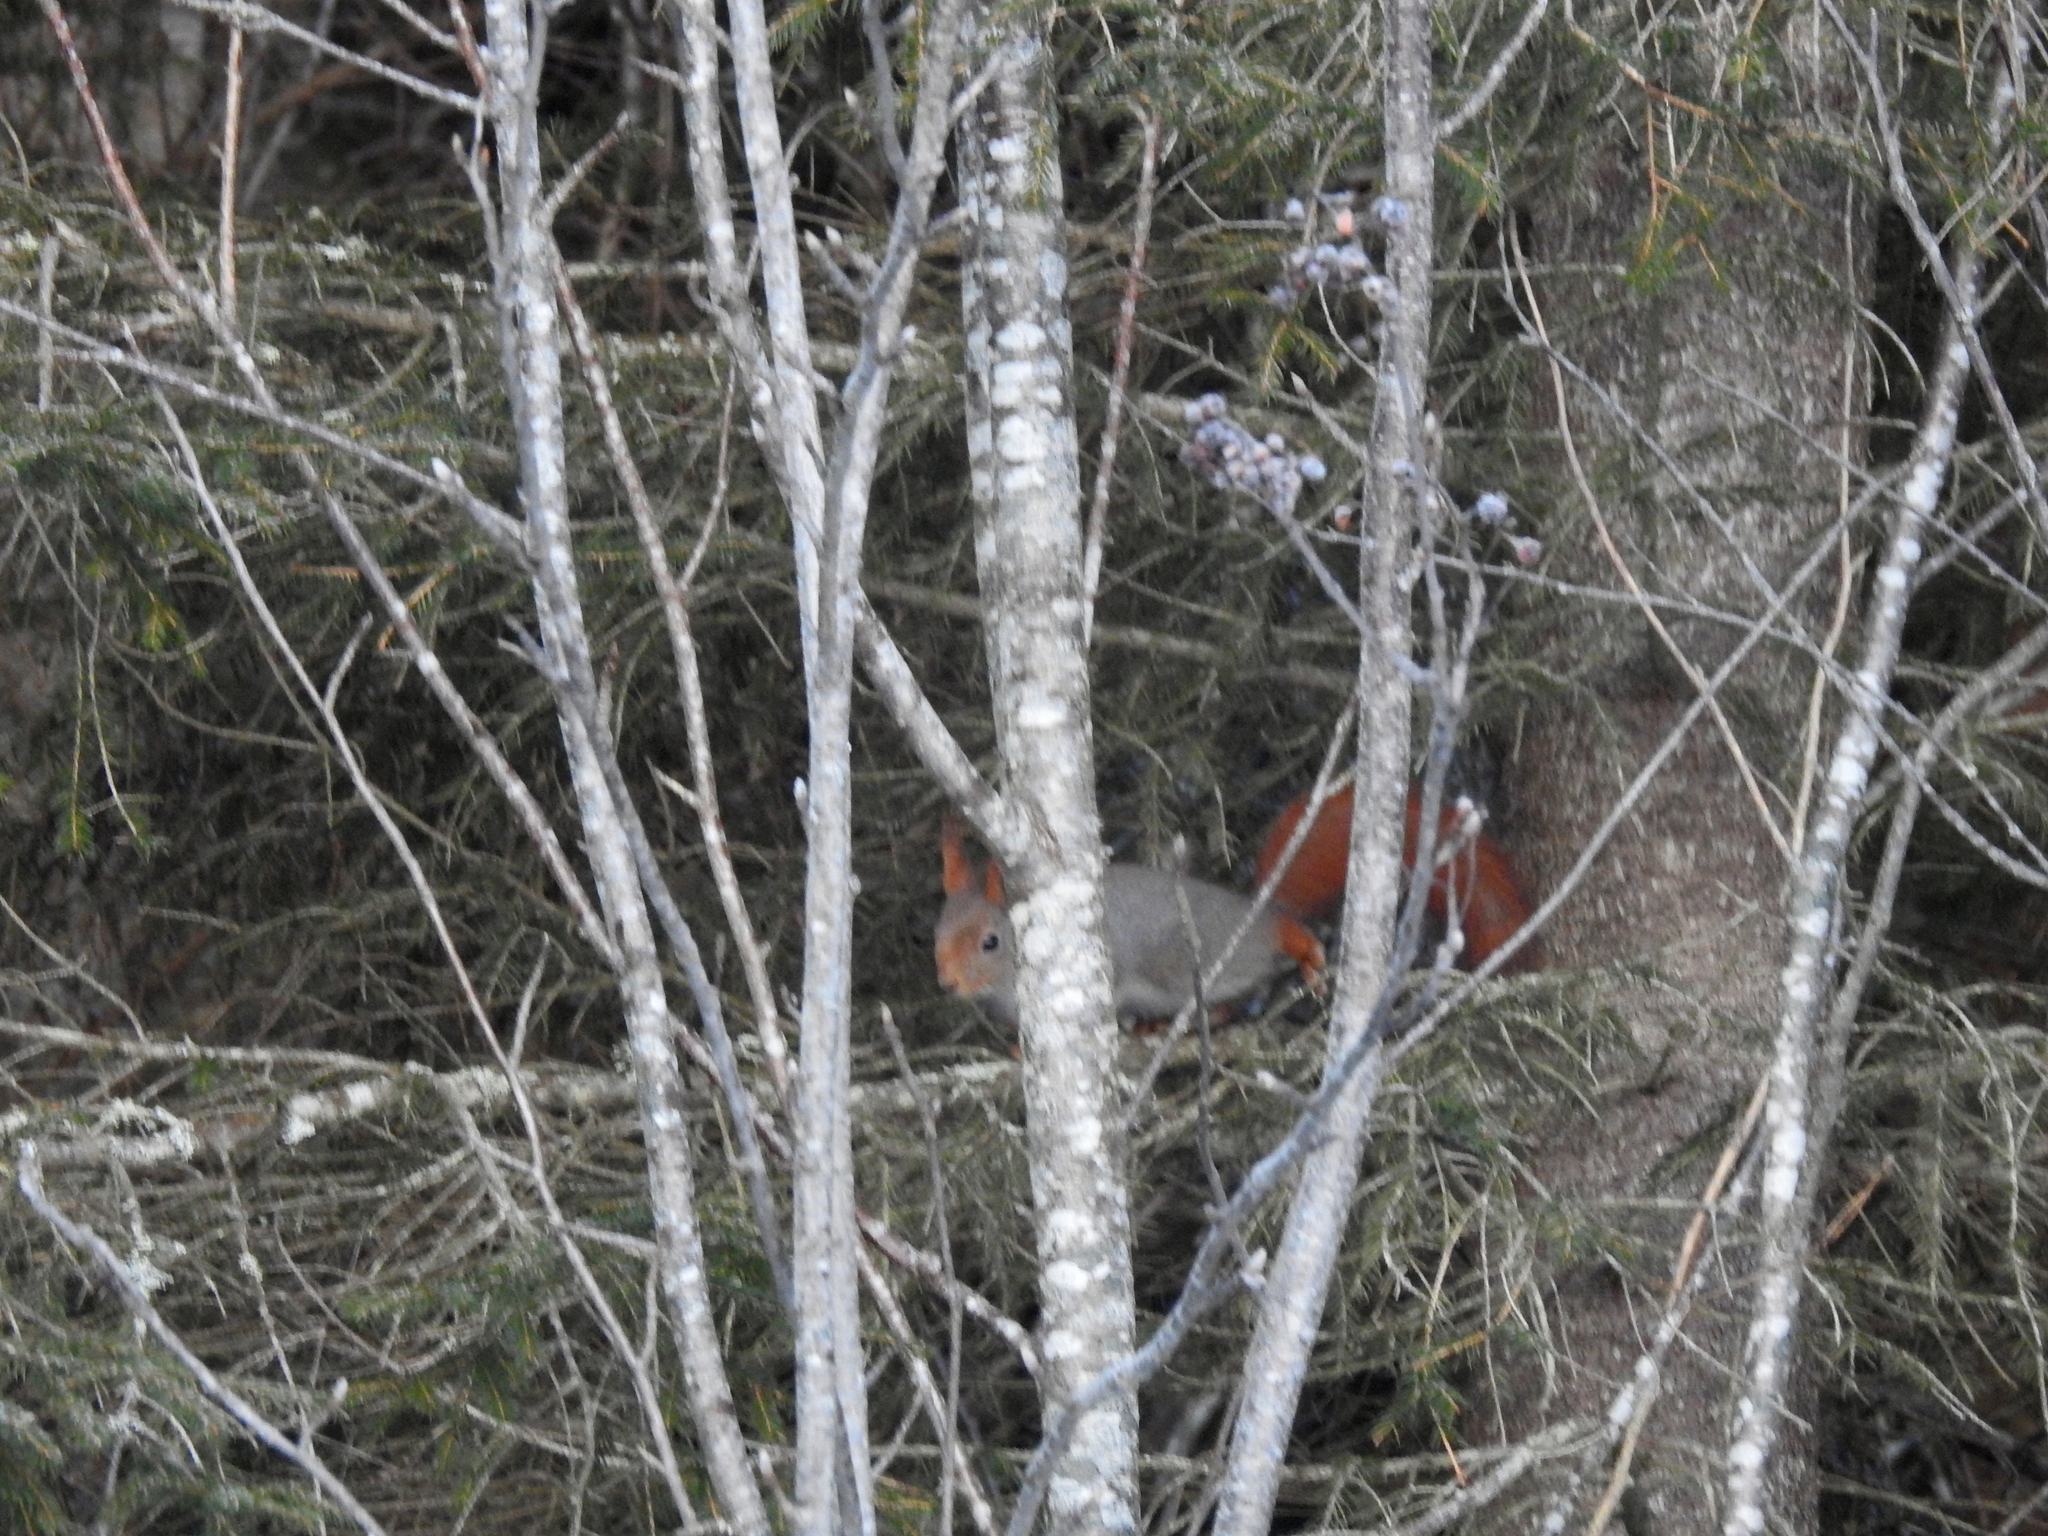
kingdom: Animalia
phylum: Chordata
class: Mammalia
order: Rodentia
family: Sciuridae
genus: Sciurus
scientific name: Sciurus vulgaris
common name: Eurasian red squirrel
